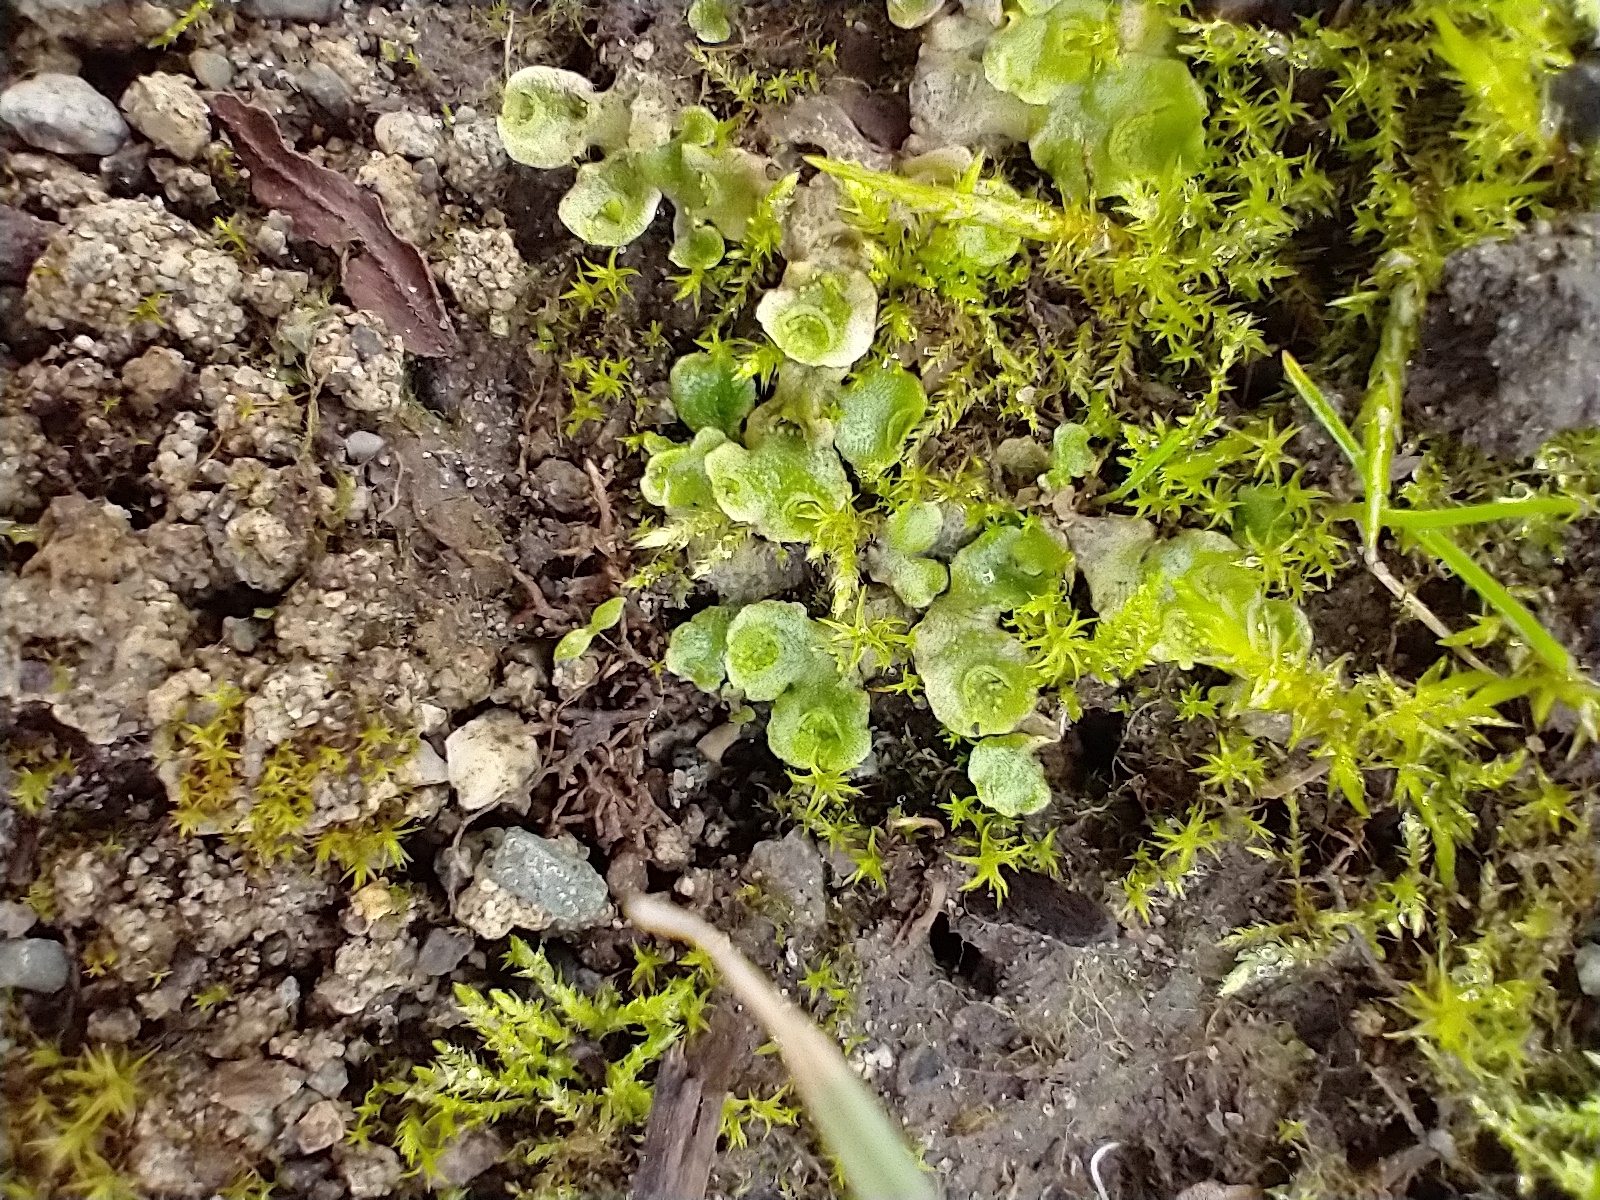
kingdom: Plantae
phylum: Marchantiophyta
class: Marchantiopsida
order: Lunulariales
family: Lunulariaceae
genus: Lunularia
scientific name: Lunularia cruciata
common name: Crescent-cup liverwort
